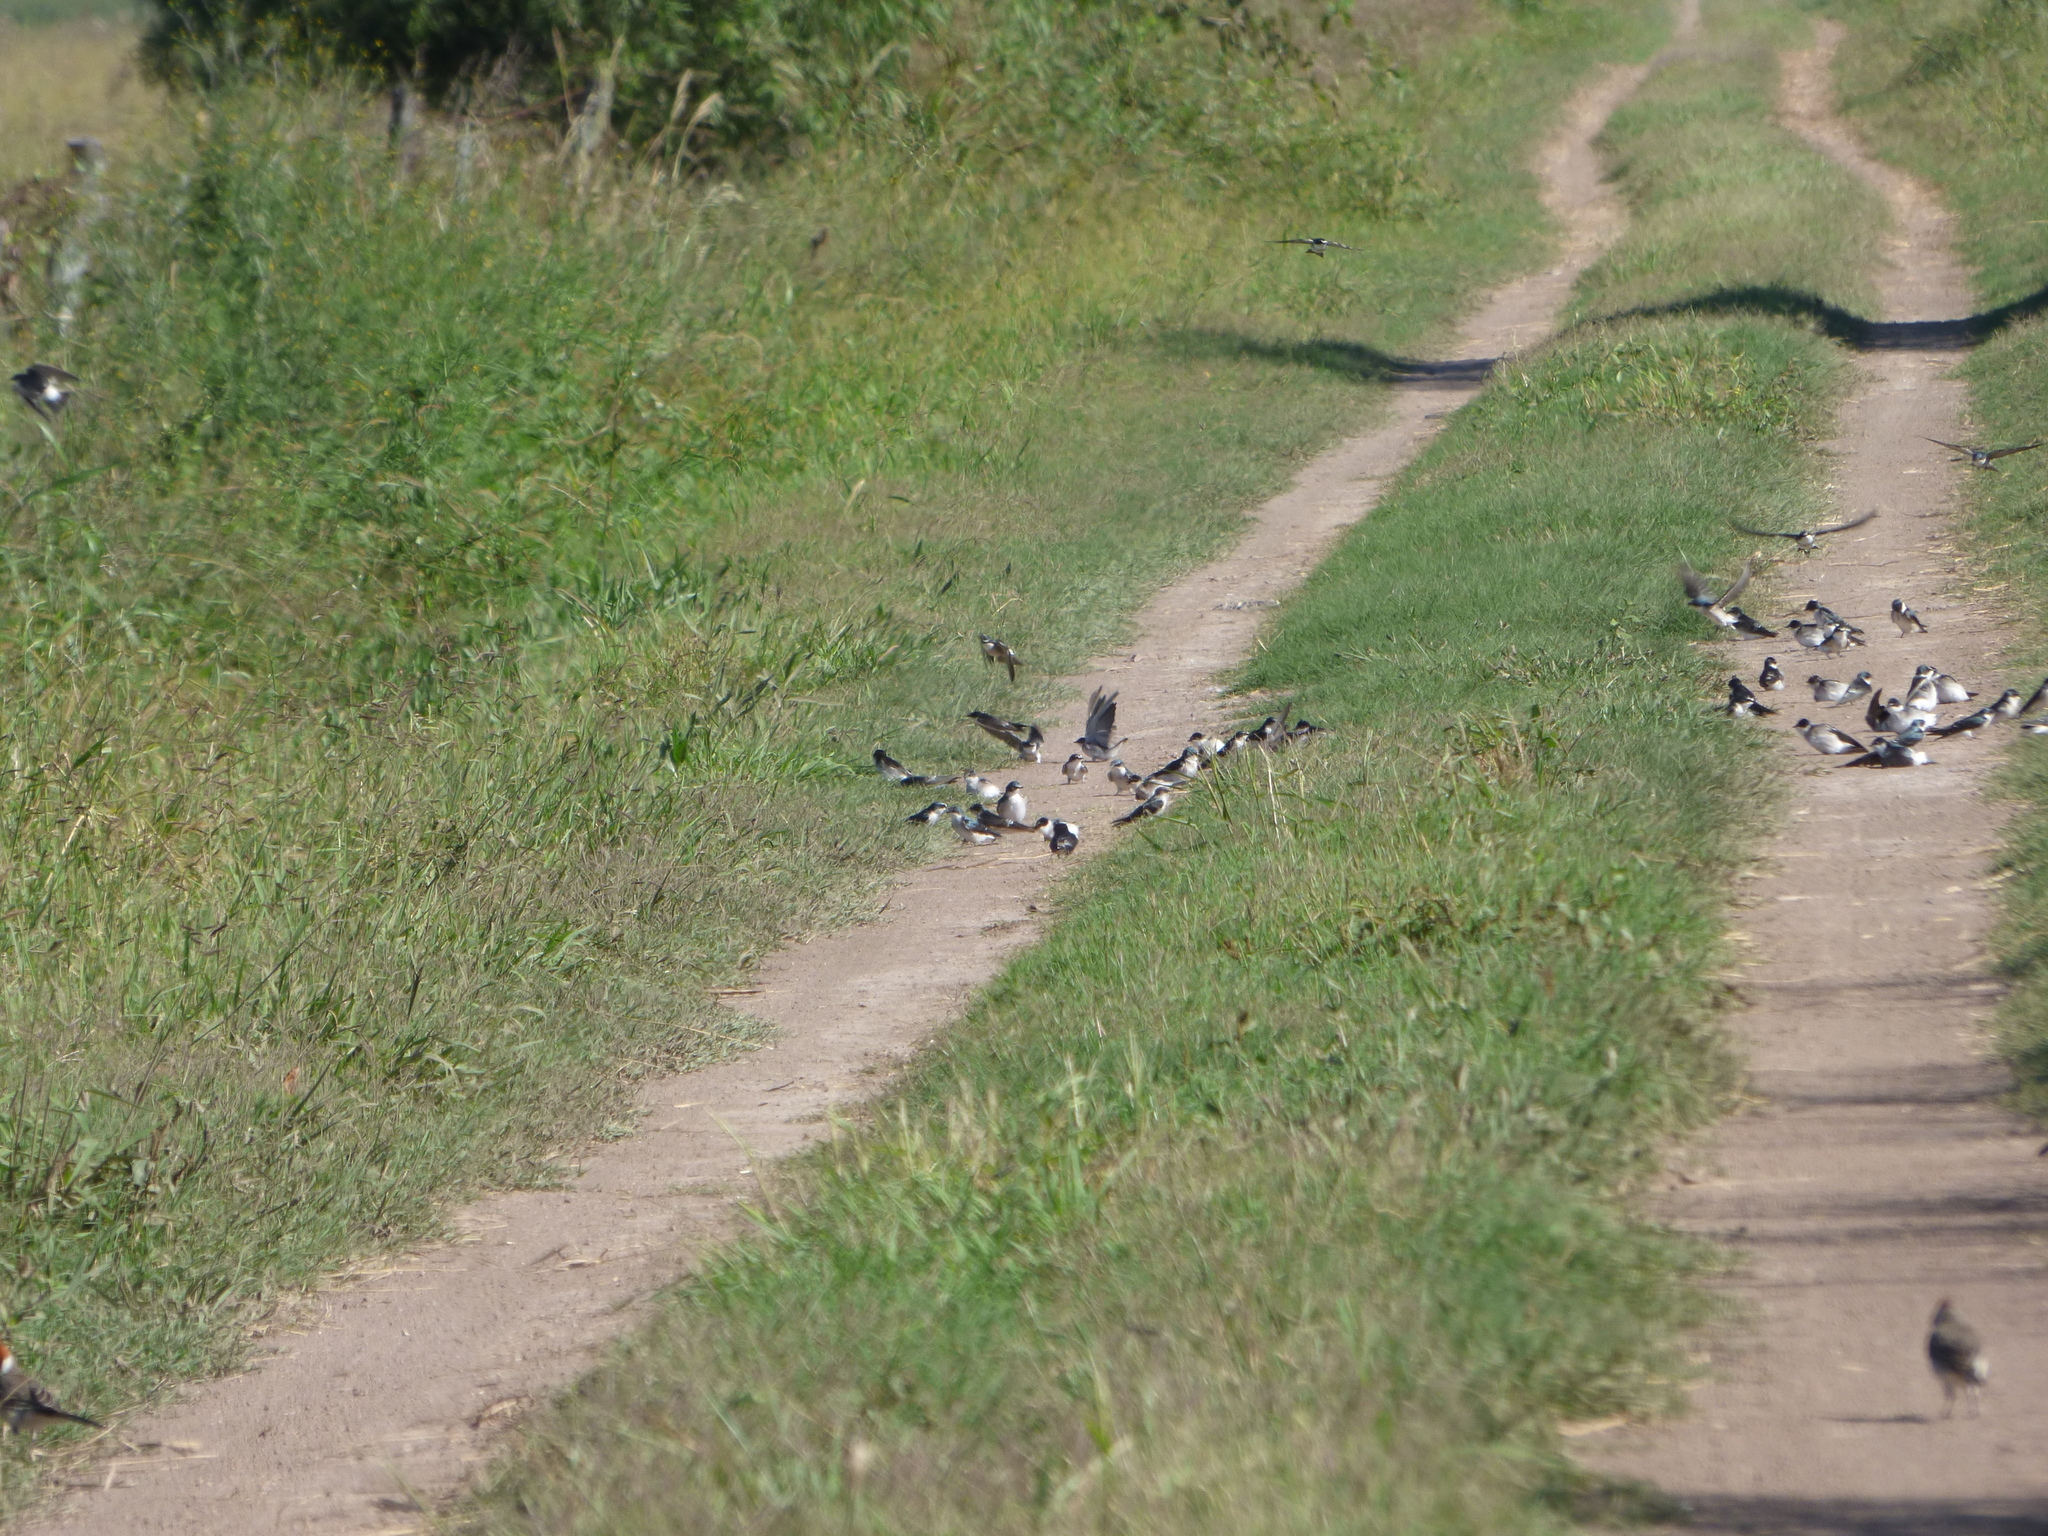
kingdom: Animalia
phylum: Chordata
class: Aves
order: Passeriformes
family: Hirundinidae
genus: Tachycineta
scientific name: Tachycineta leucorrhoa
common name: White-rumped swallow
